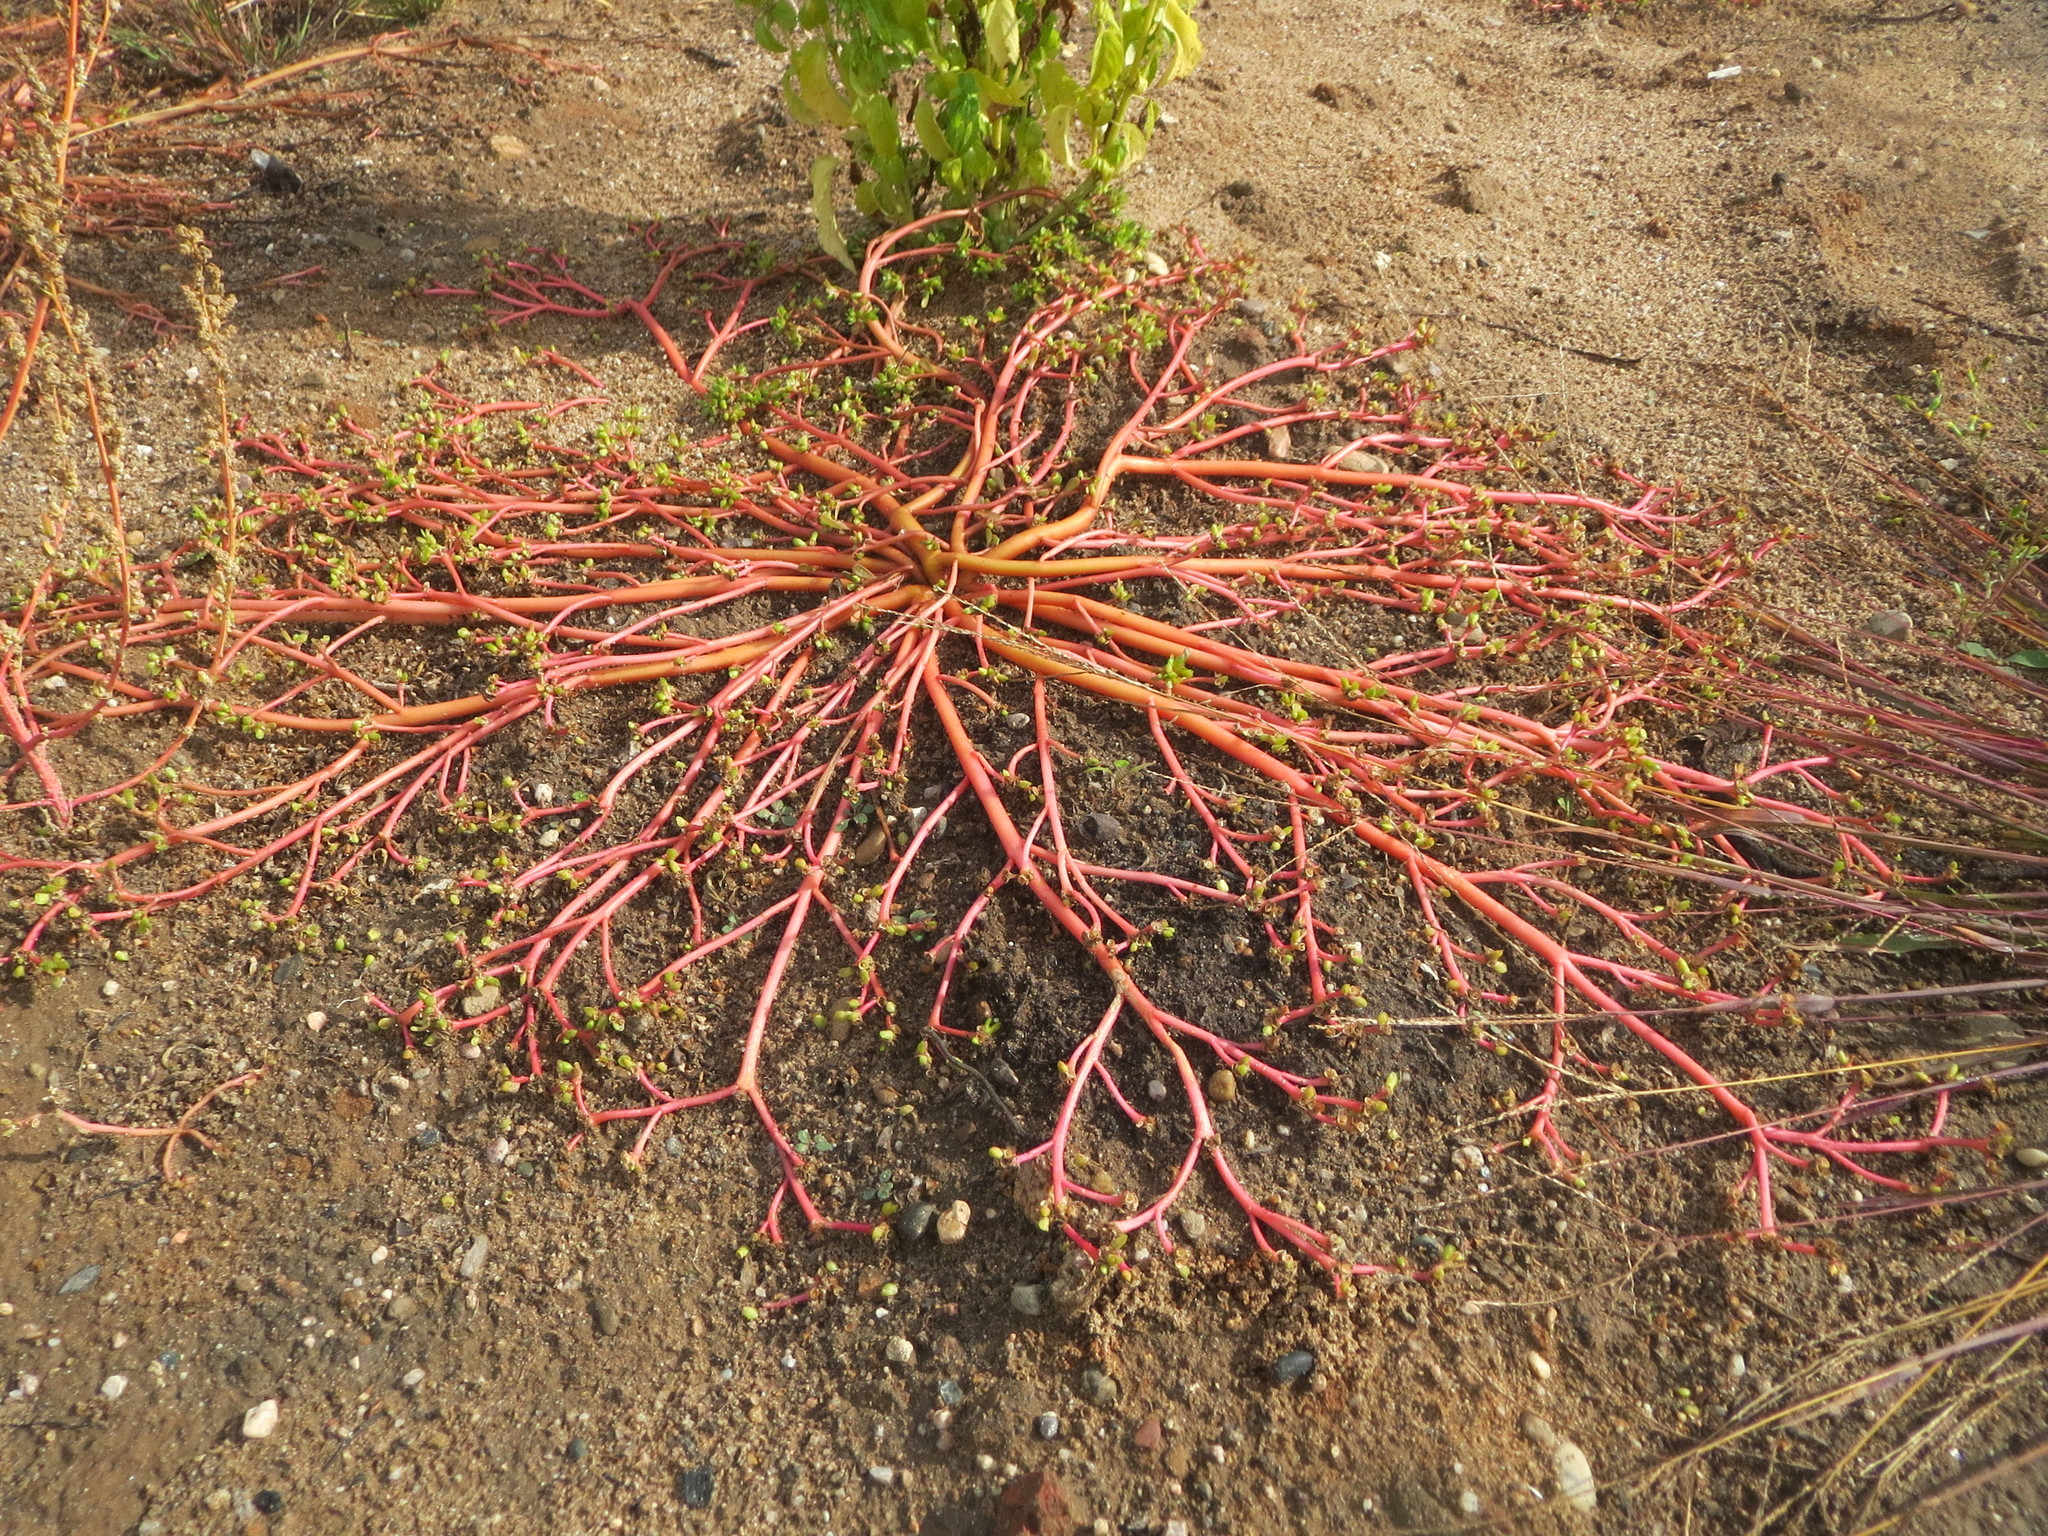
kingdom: Plantae
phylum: Tracheophyta
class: Magnoliopsida
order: Caryophyllales
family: Portulacaceae
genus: Portulaca
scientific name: Portulaca oleracea
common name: Common purslane
